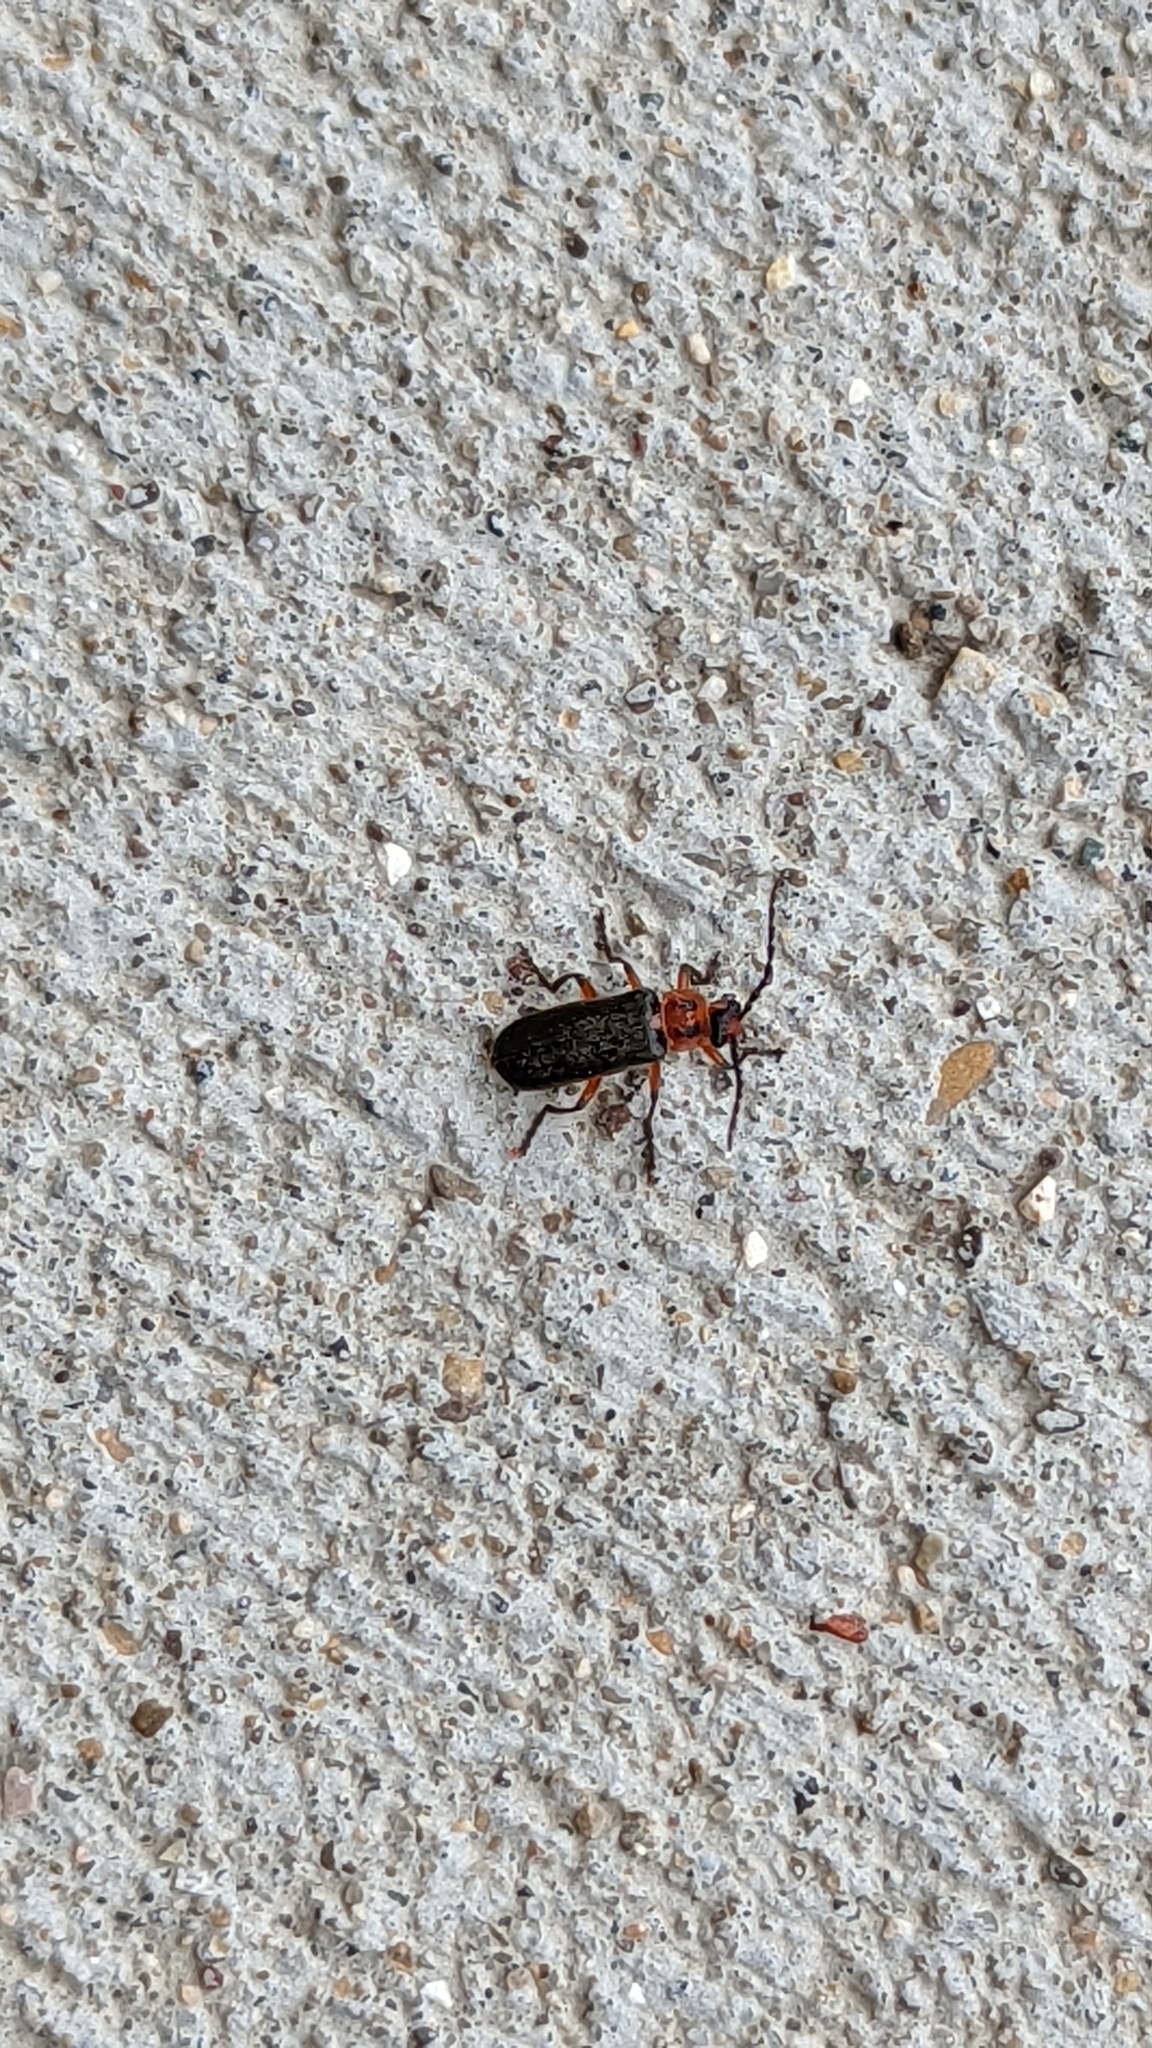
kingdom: Animalia
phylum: Arthropoda
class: Insecta
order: Coleoptera
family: Cantharidae
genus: Atalantycha
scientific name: Atalantycha bilineata
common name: Two-lined leatherwing
